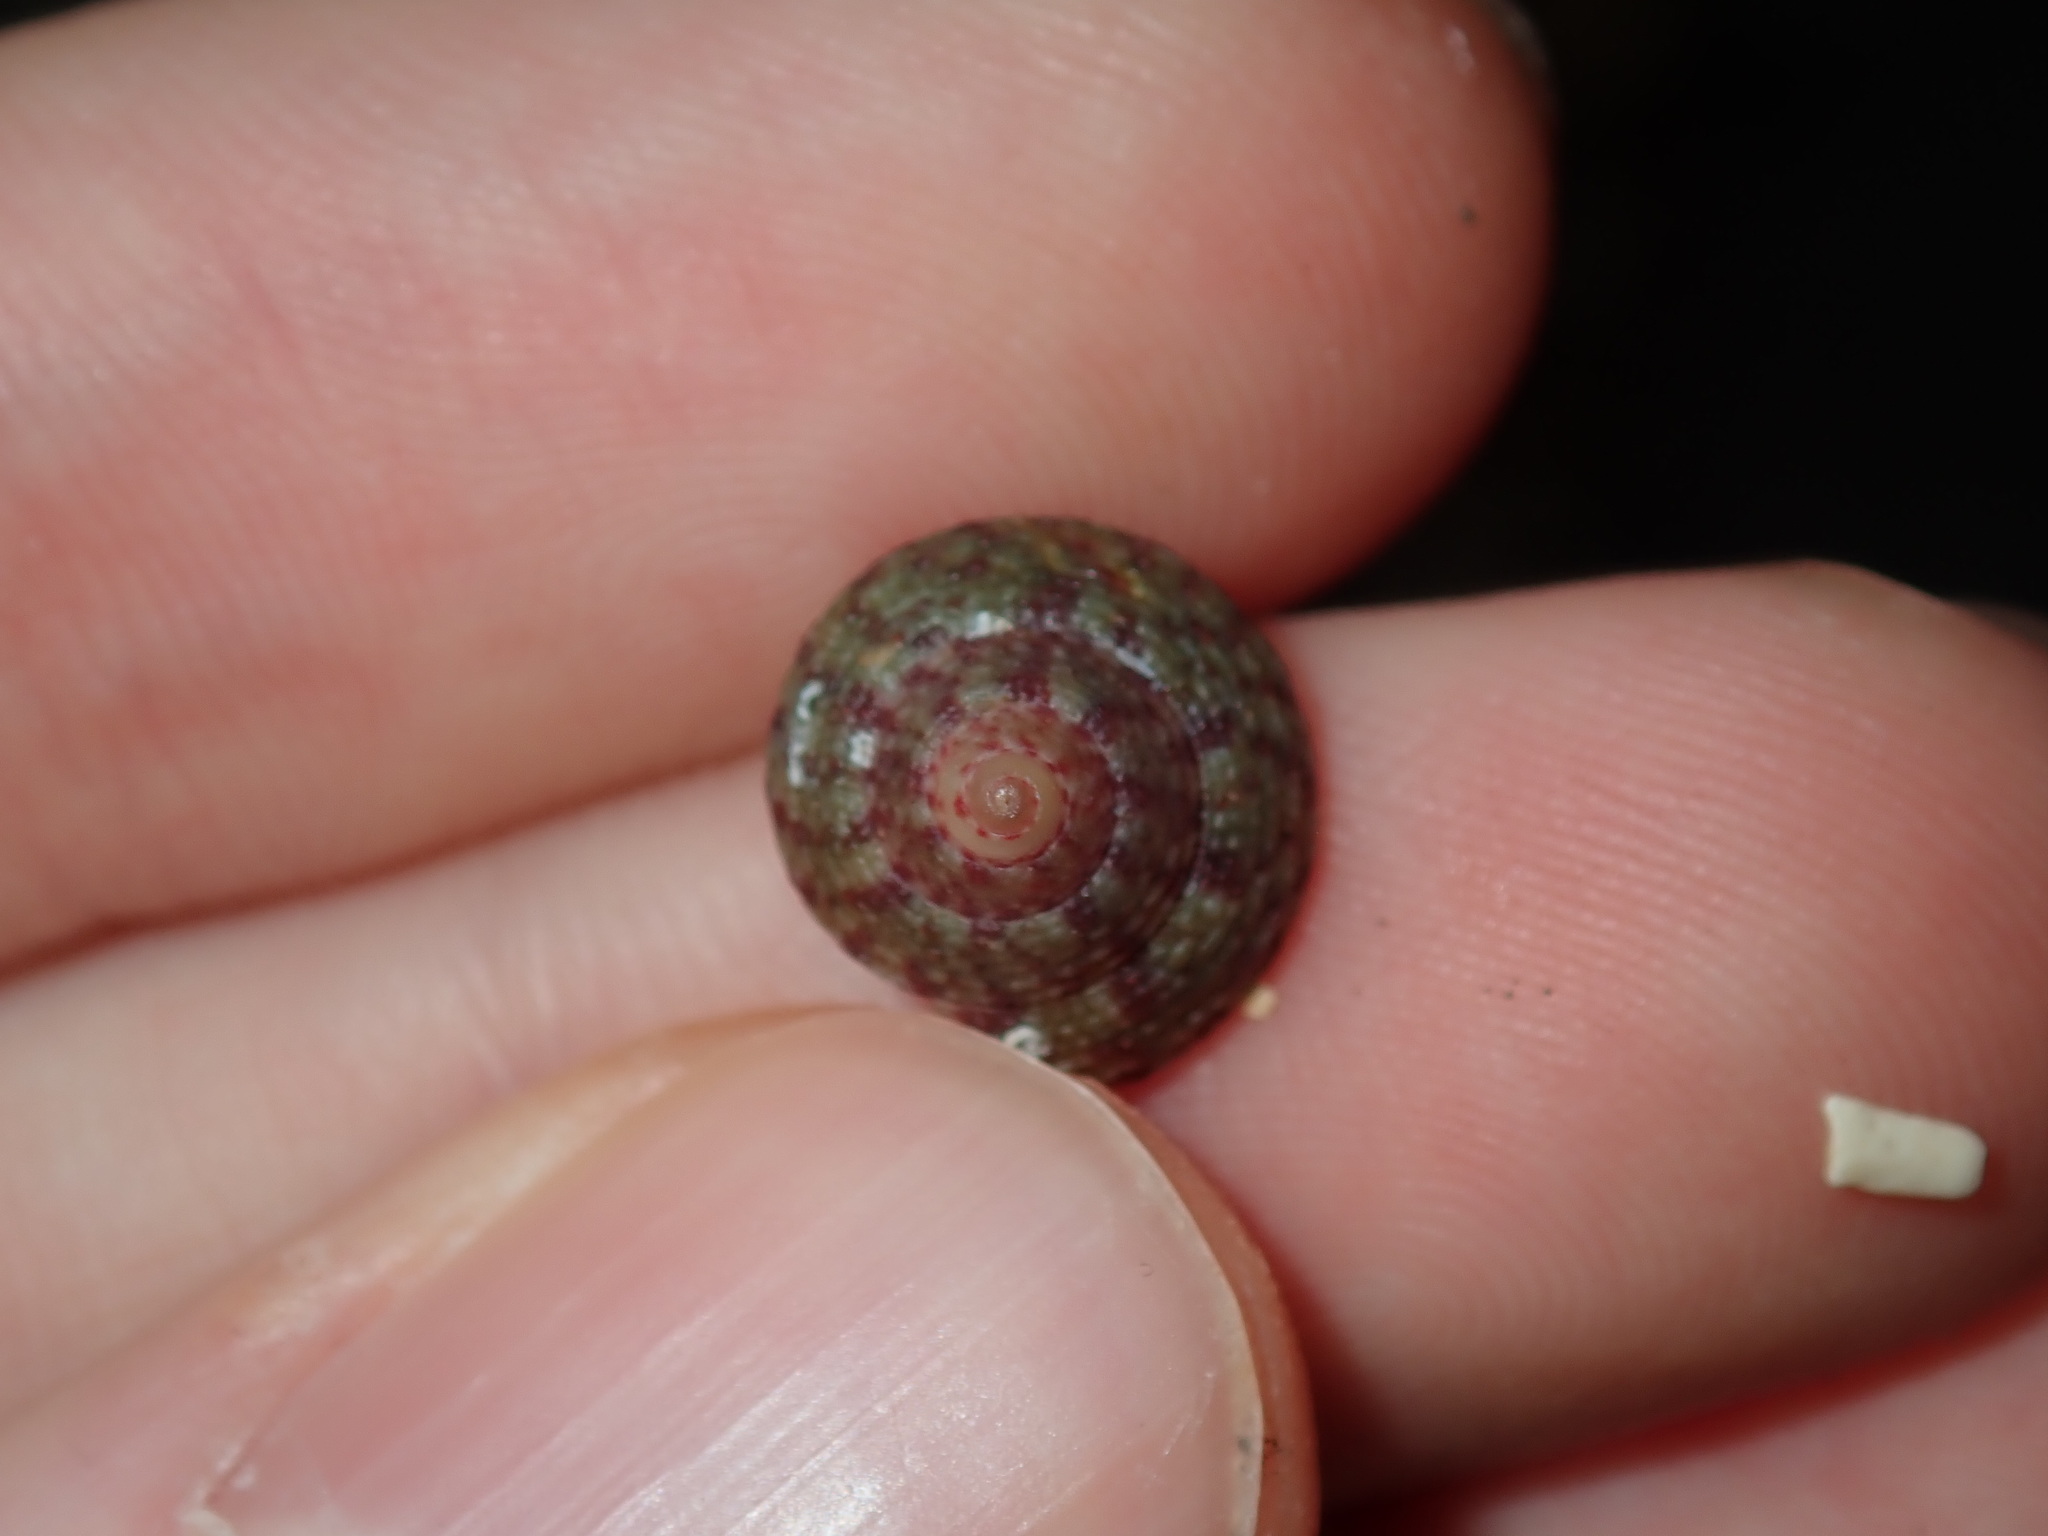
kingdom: Animalia
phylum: Mollusca
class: Gastropoda
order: Trochida
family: Trochidae
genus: Clanculus
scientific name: Clanculus clangulus
